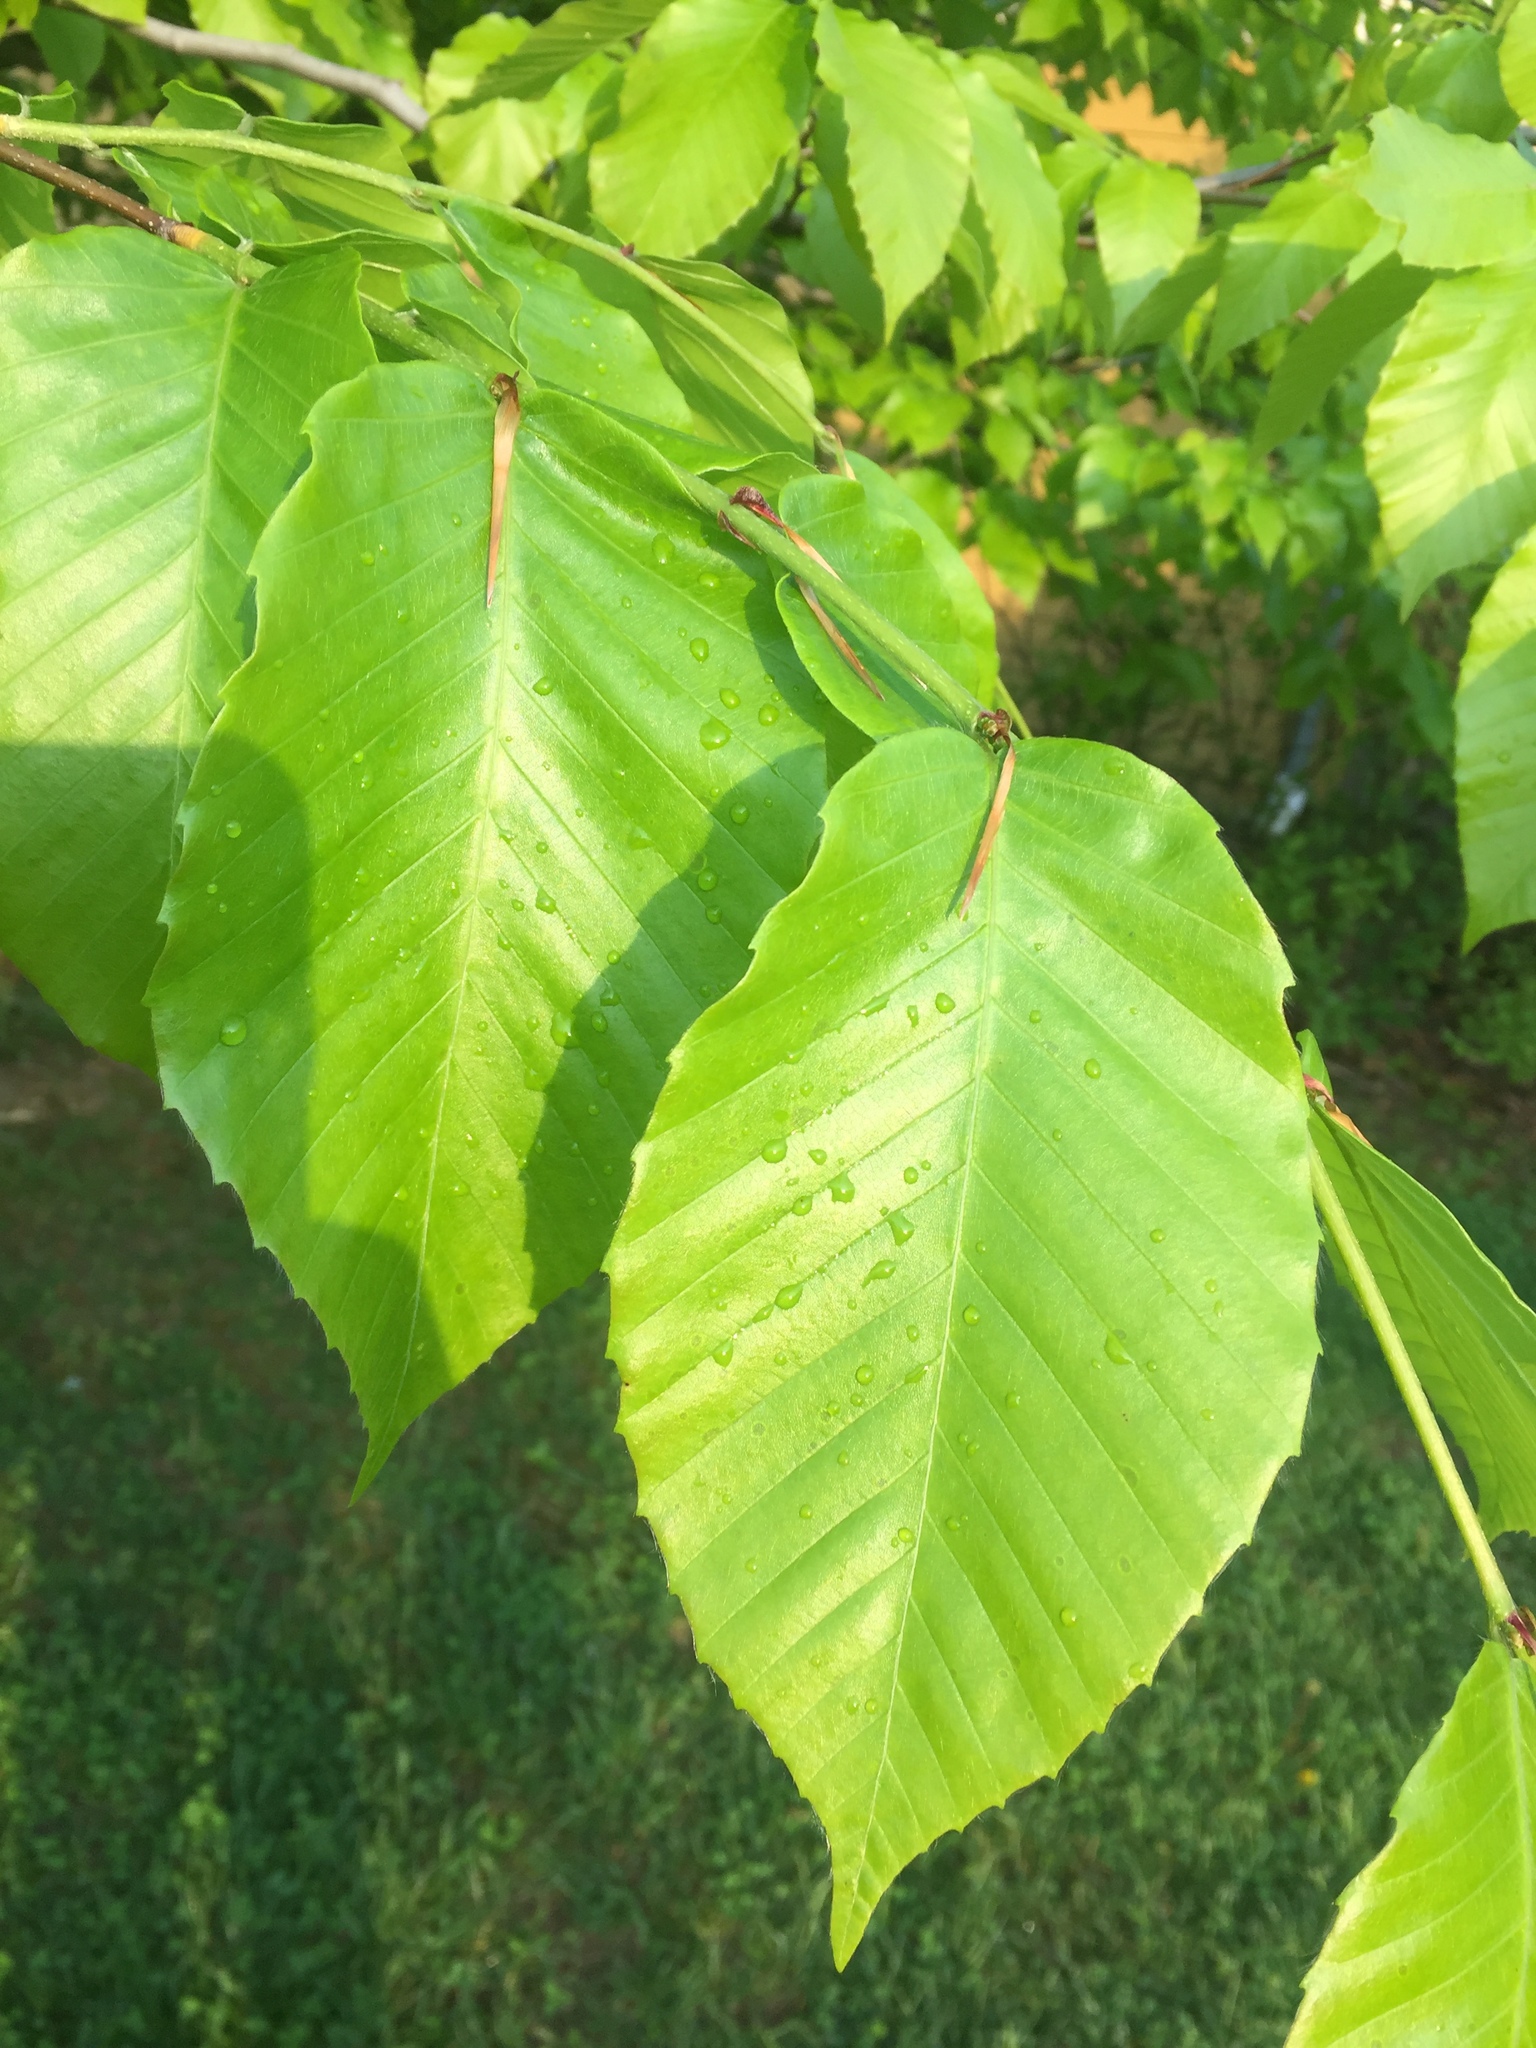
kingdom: Plantae
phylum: Tracheophyta
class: Magnoliopsida
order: Fagales
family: Fagaceae
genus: Fagus
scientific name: Fagus grandifolia
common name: American beech
